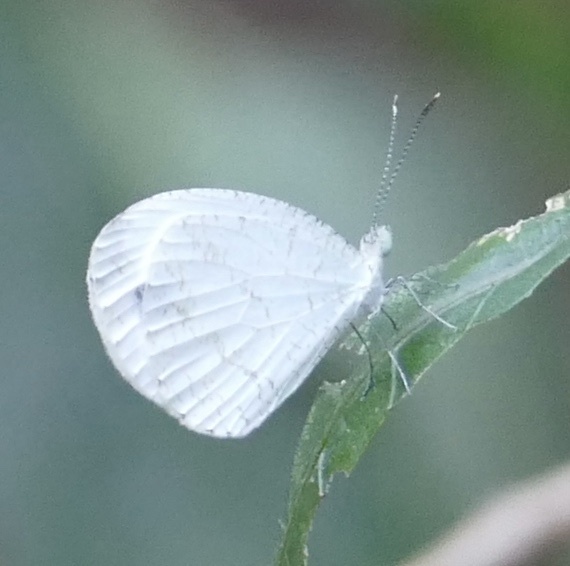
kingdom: Animalia
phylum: Arthropoda
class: Insecta
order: Lepidoptera
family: Pieridae
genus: Leptosia
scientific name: Leptosia alcesta
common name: African wood white
